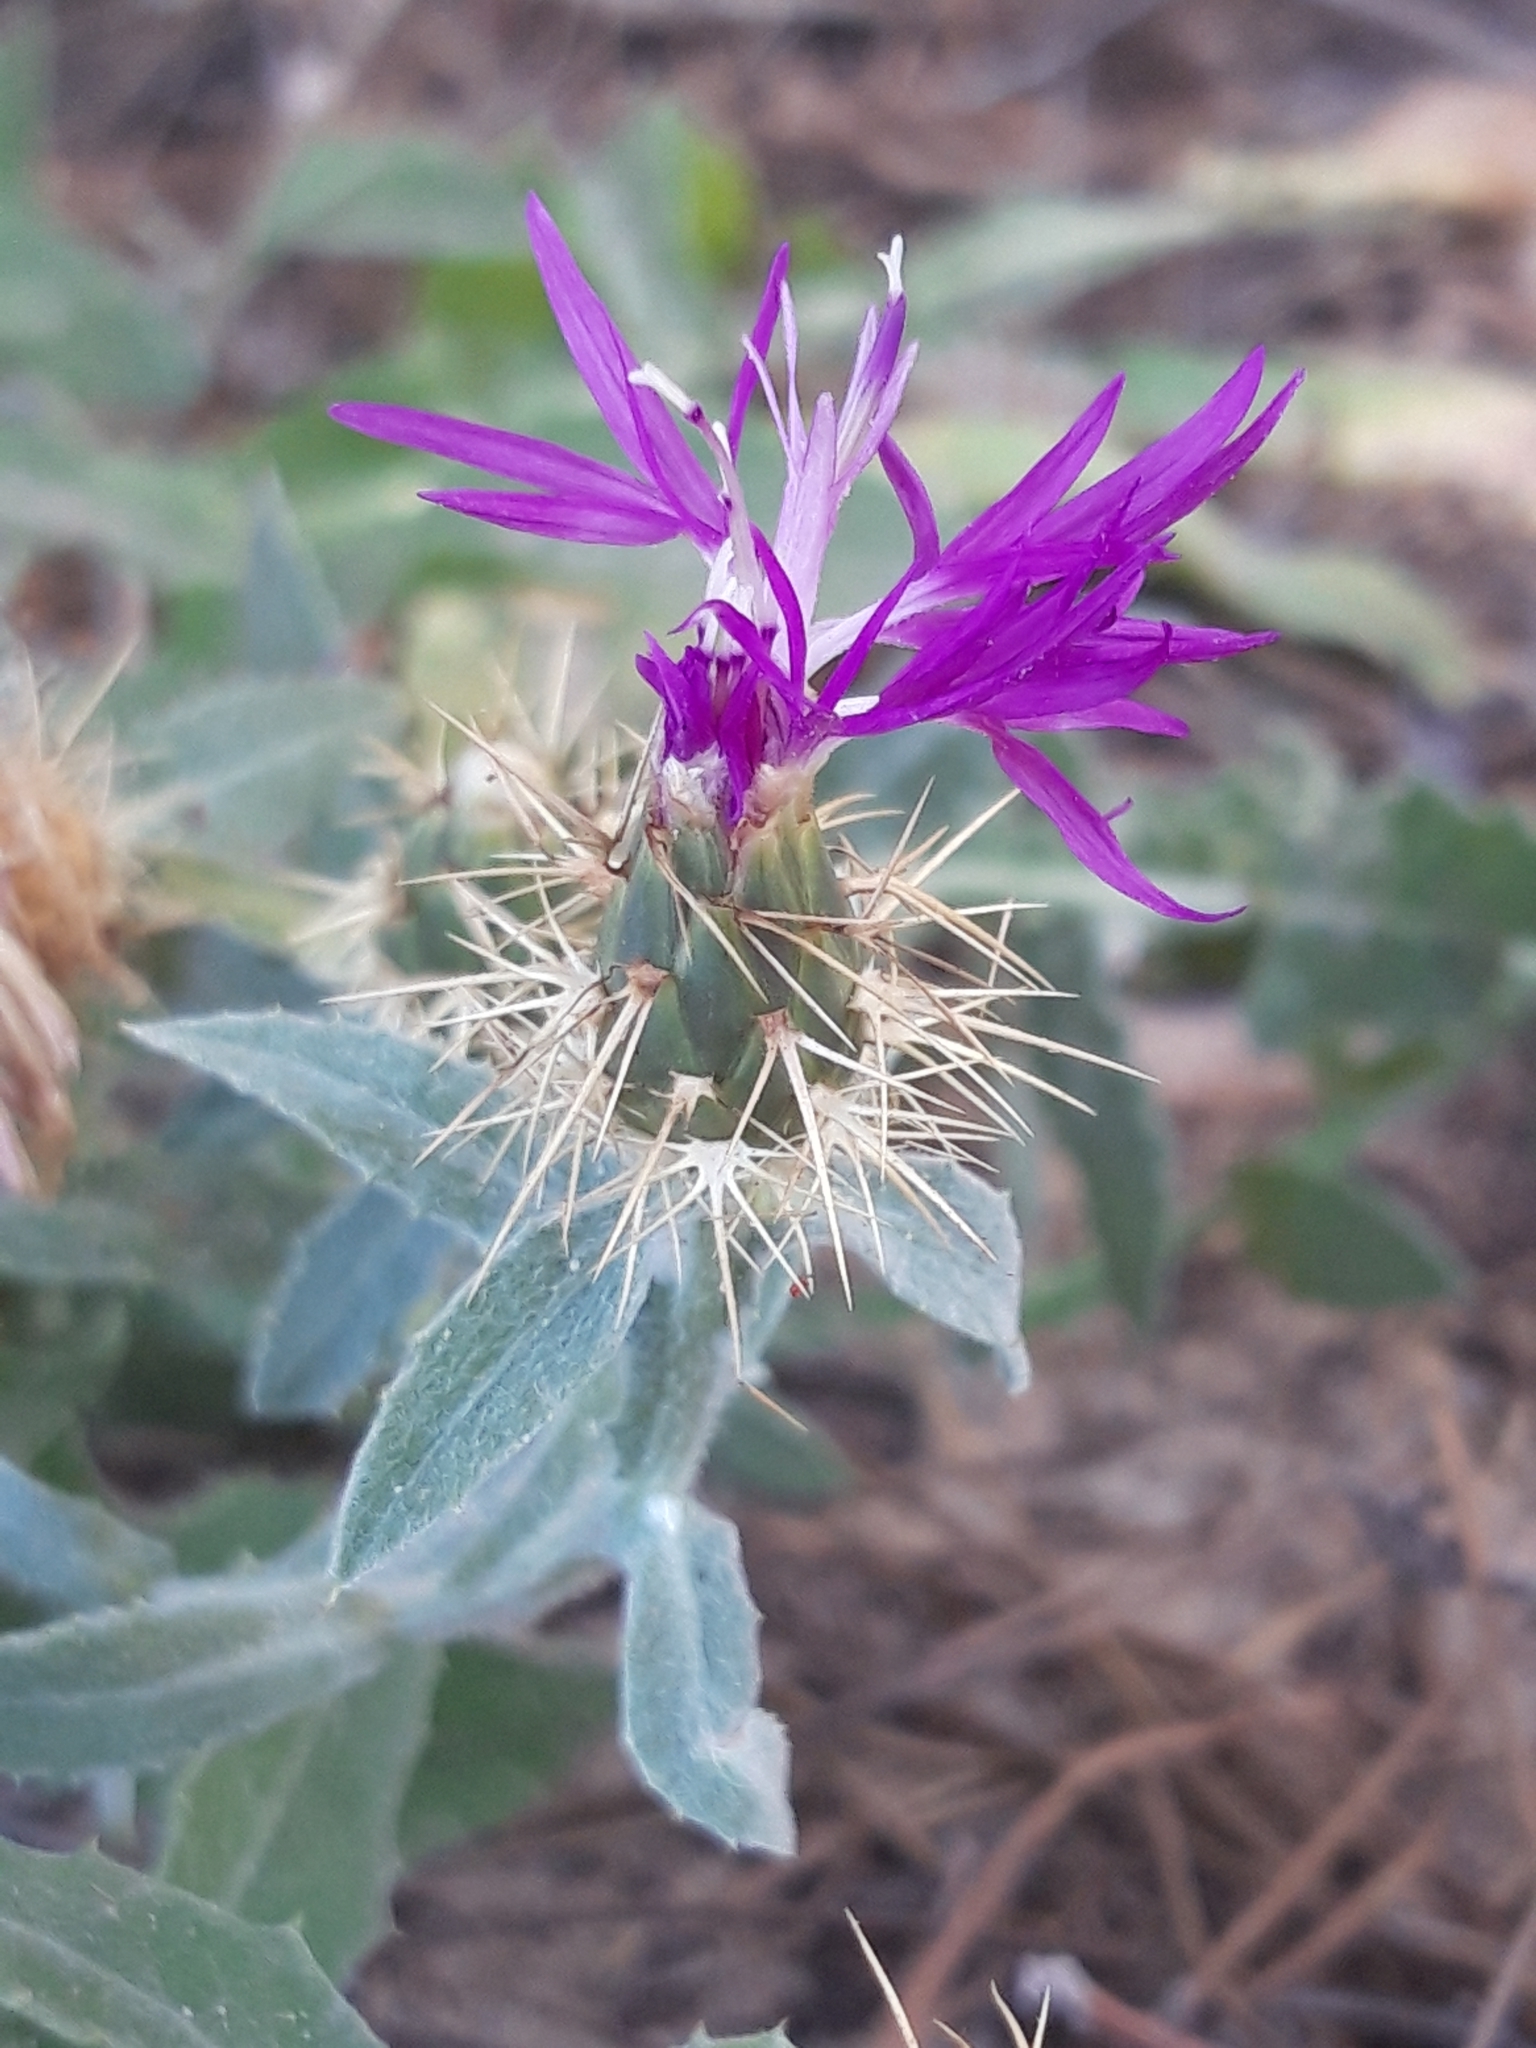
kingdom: Plantae
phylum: Tracheophyta
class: Magnoliopsida
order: Asterales
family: Asteraceae
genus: Centaurea
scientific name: Centaurea seridis
